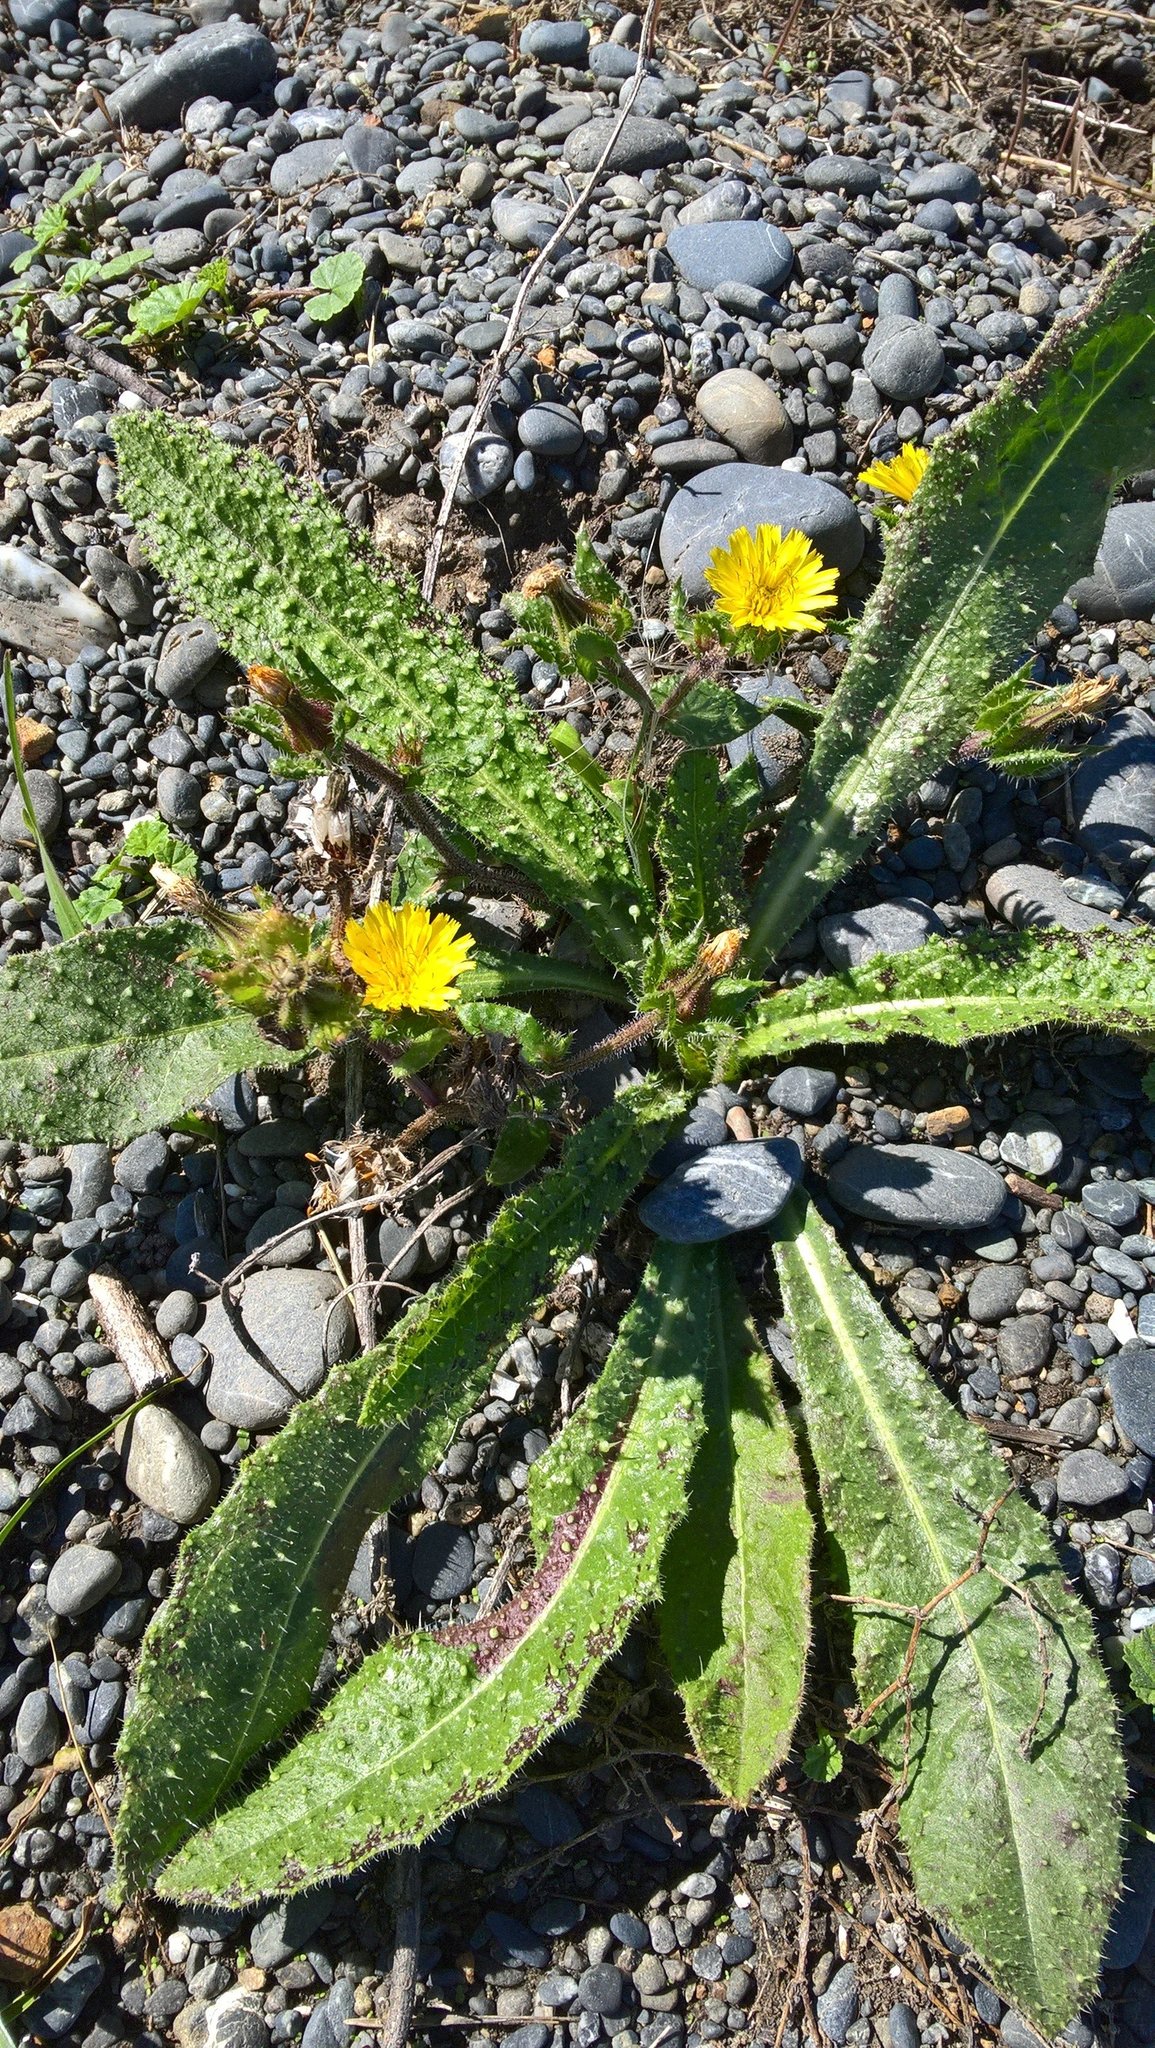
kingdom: Plantae
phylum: Tracheophyta
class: Magnoliopsida
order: Asterales
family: Asteraceae
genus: Helminthotheca
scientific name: Helminthotheca echioides
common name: Ox-tongue
